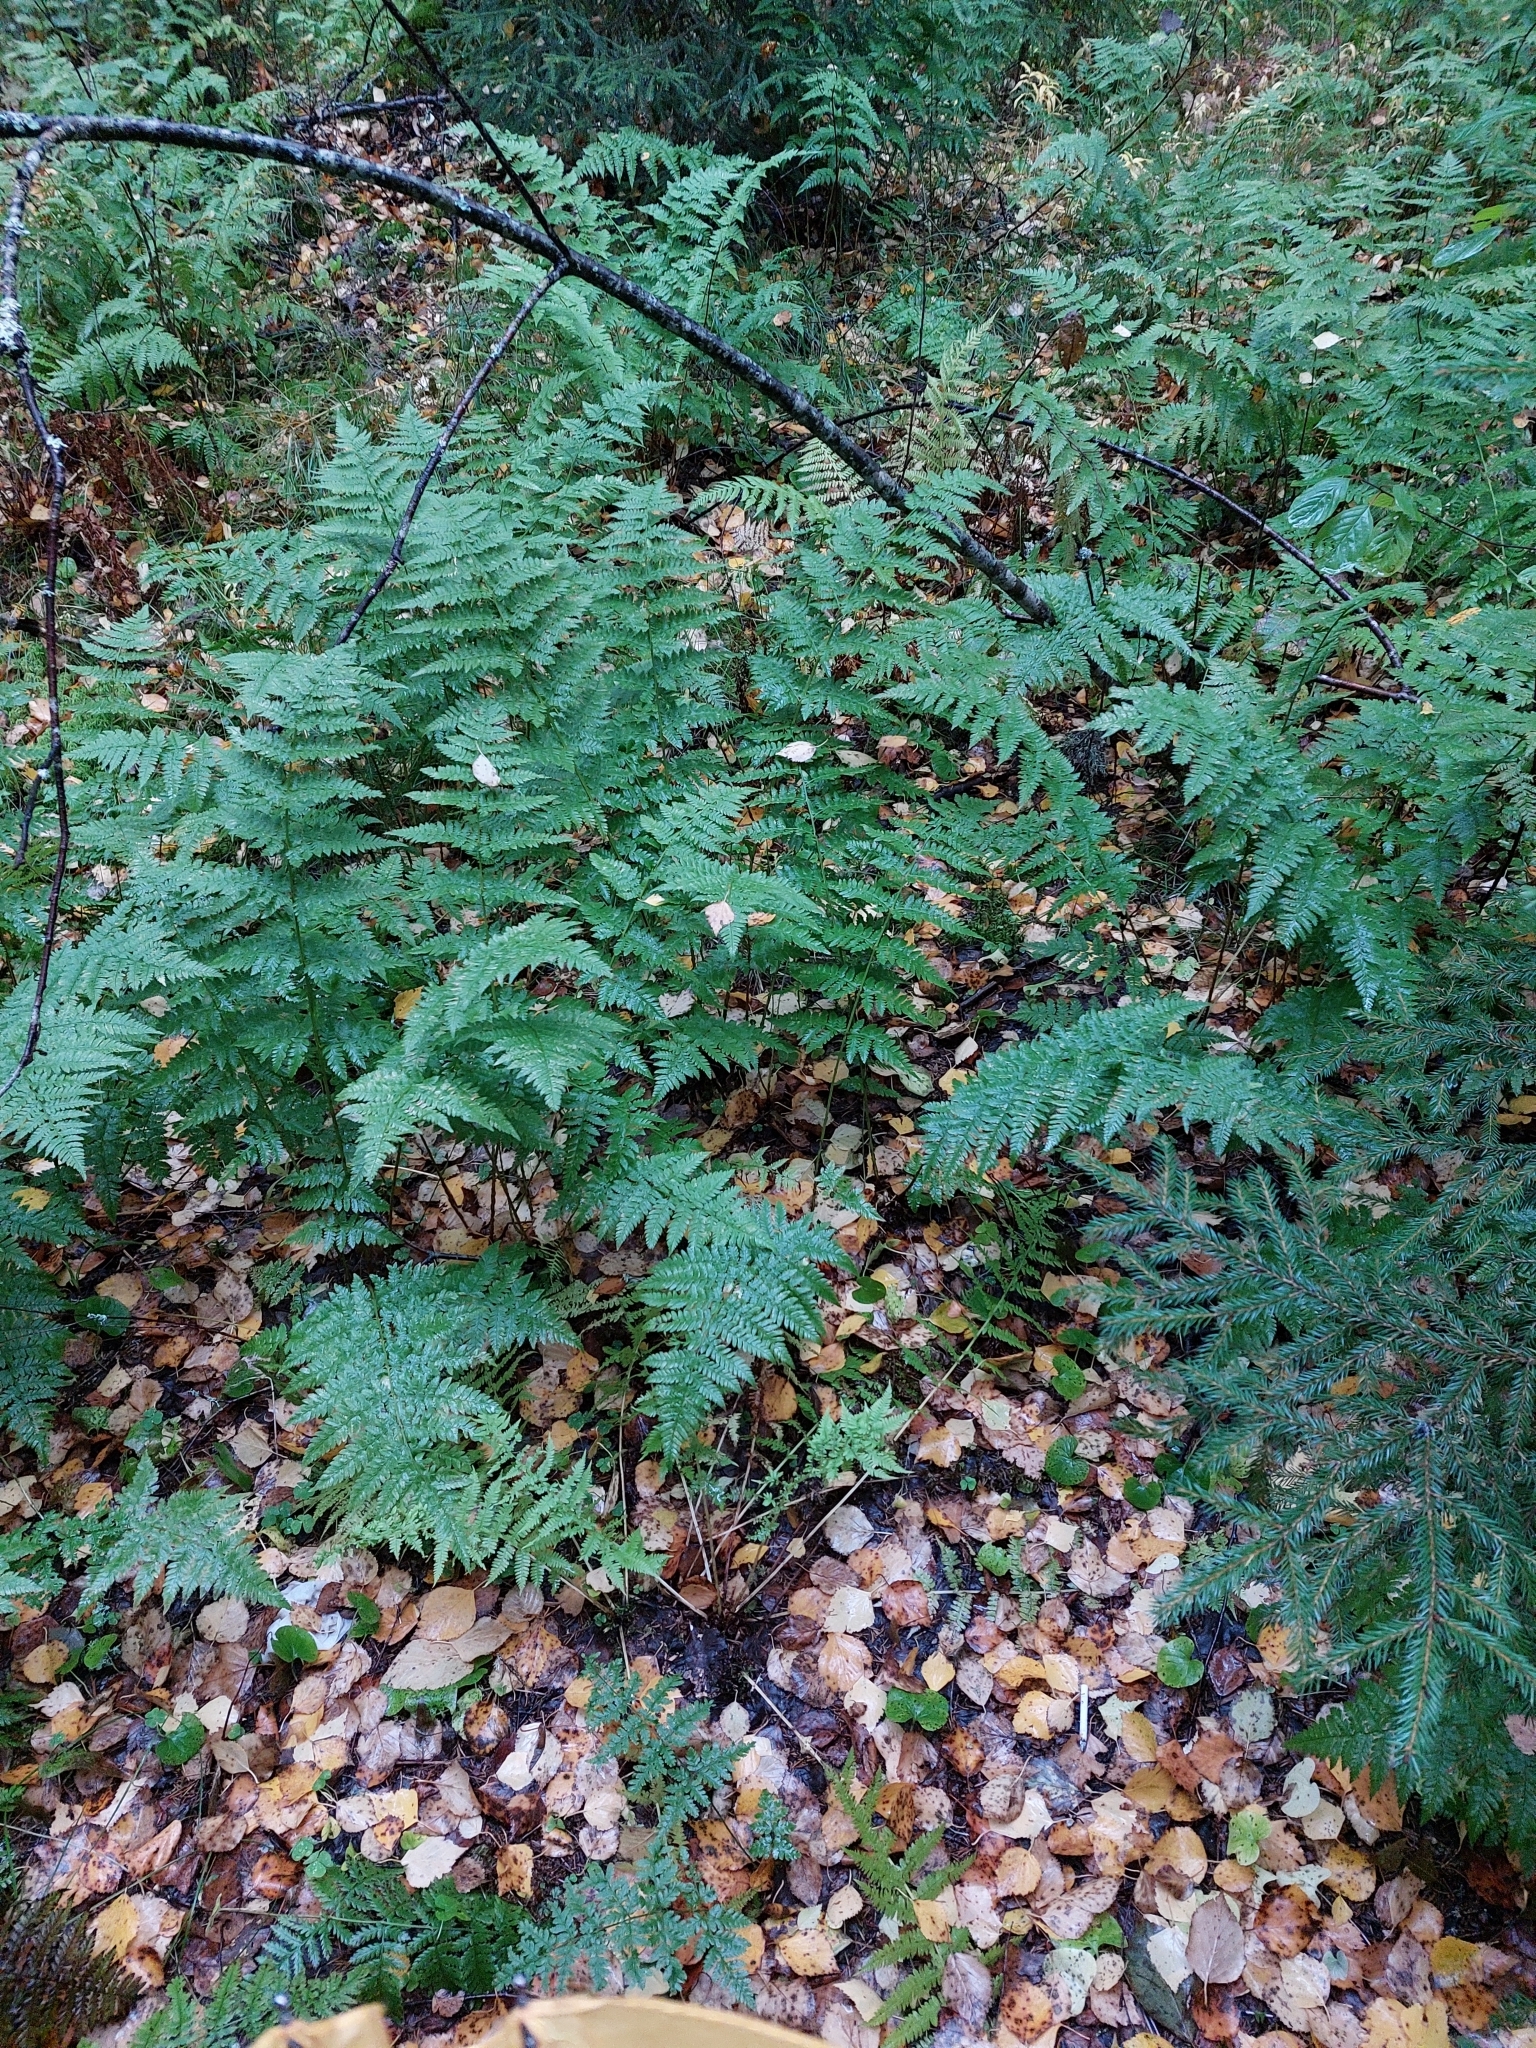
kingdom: Plantae
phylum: Tracheophyta
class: Polypodiopsida
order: Polypodiales
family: Dryopteridaceae
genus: Dryopteris
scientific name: Dryopteris carthusiana
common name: Narrow buckler-fern
